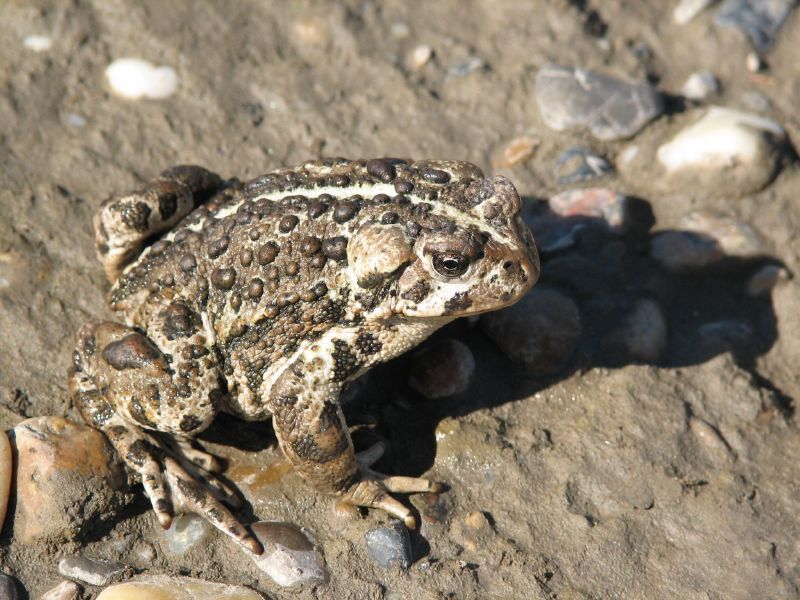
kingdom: Animalia
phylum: Chordata
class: Amphibia
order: Anura
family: Bufonidae
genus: Anaxyrus
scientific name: Anaxyrus boreas
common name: Western toad
